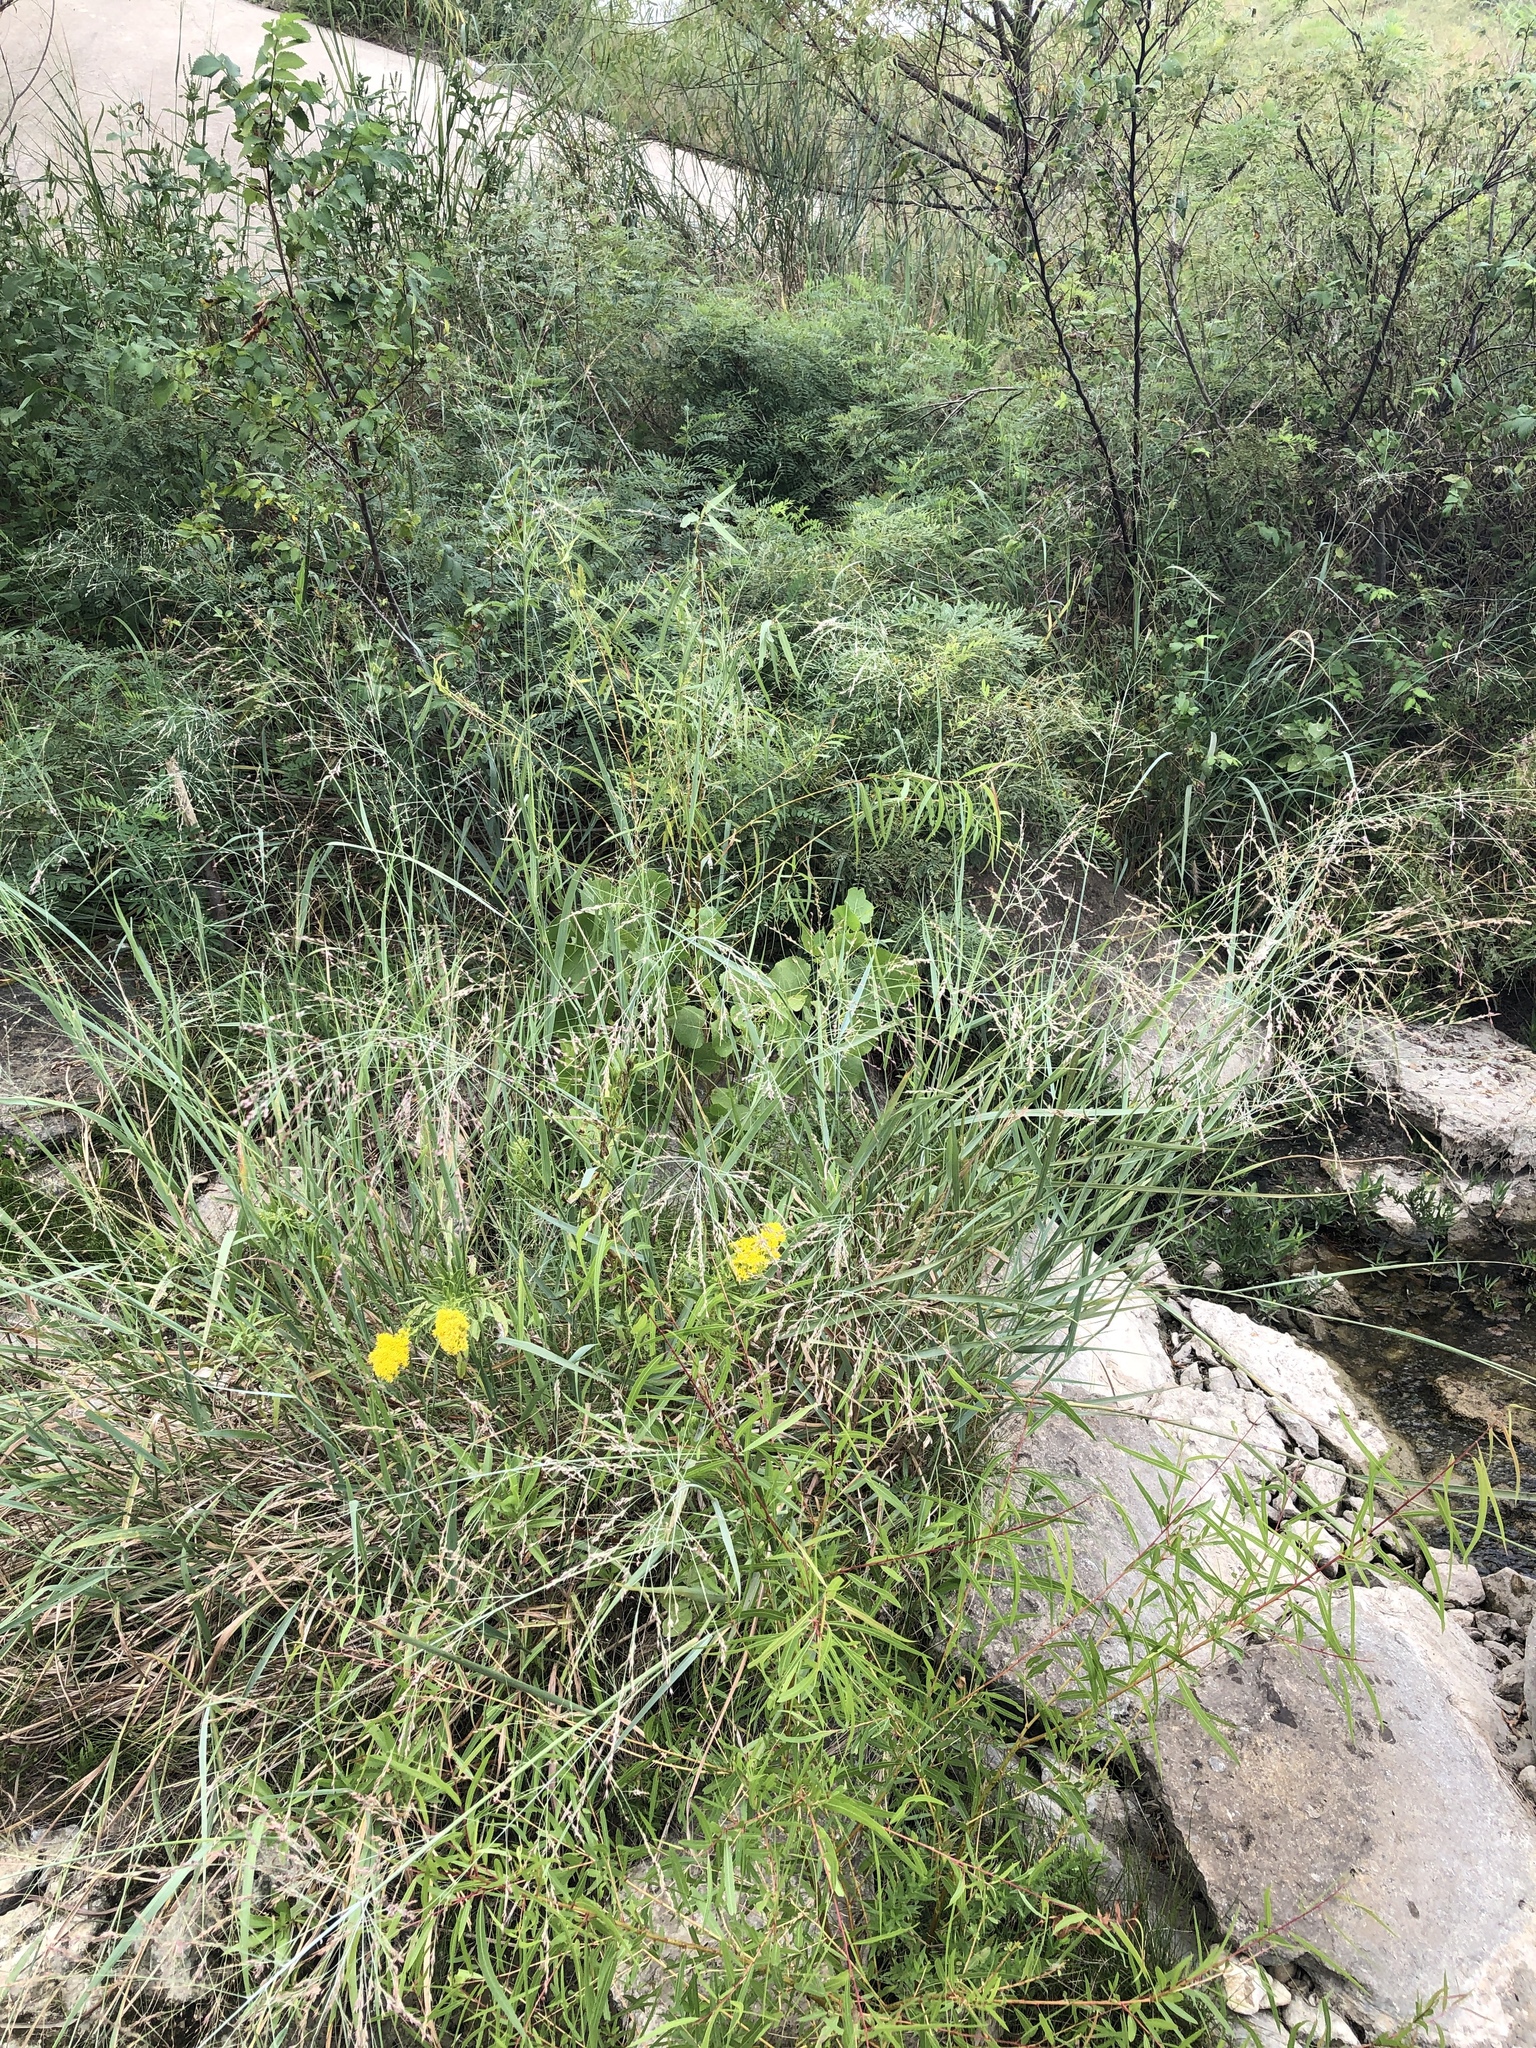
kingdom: Plantae
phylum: Tracheophyta
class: Liliopsida
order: Poales
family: Poaceae
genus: Panicum
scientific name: Panicum virgatum
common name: Switchgrass
